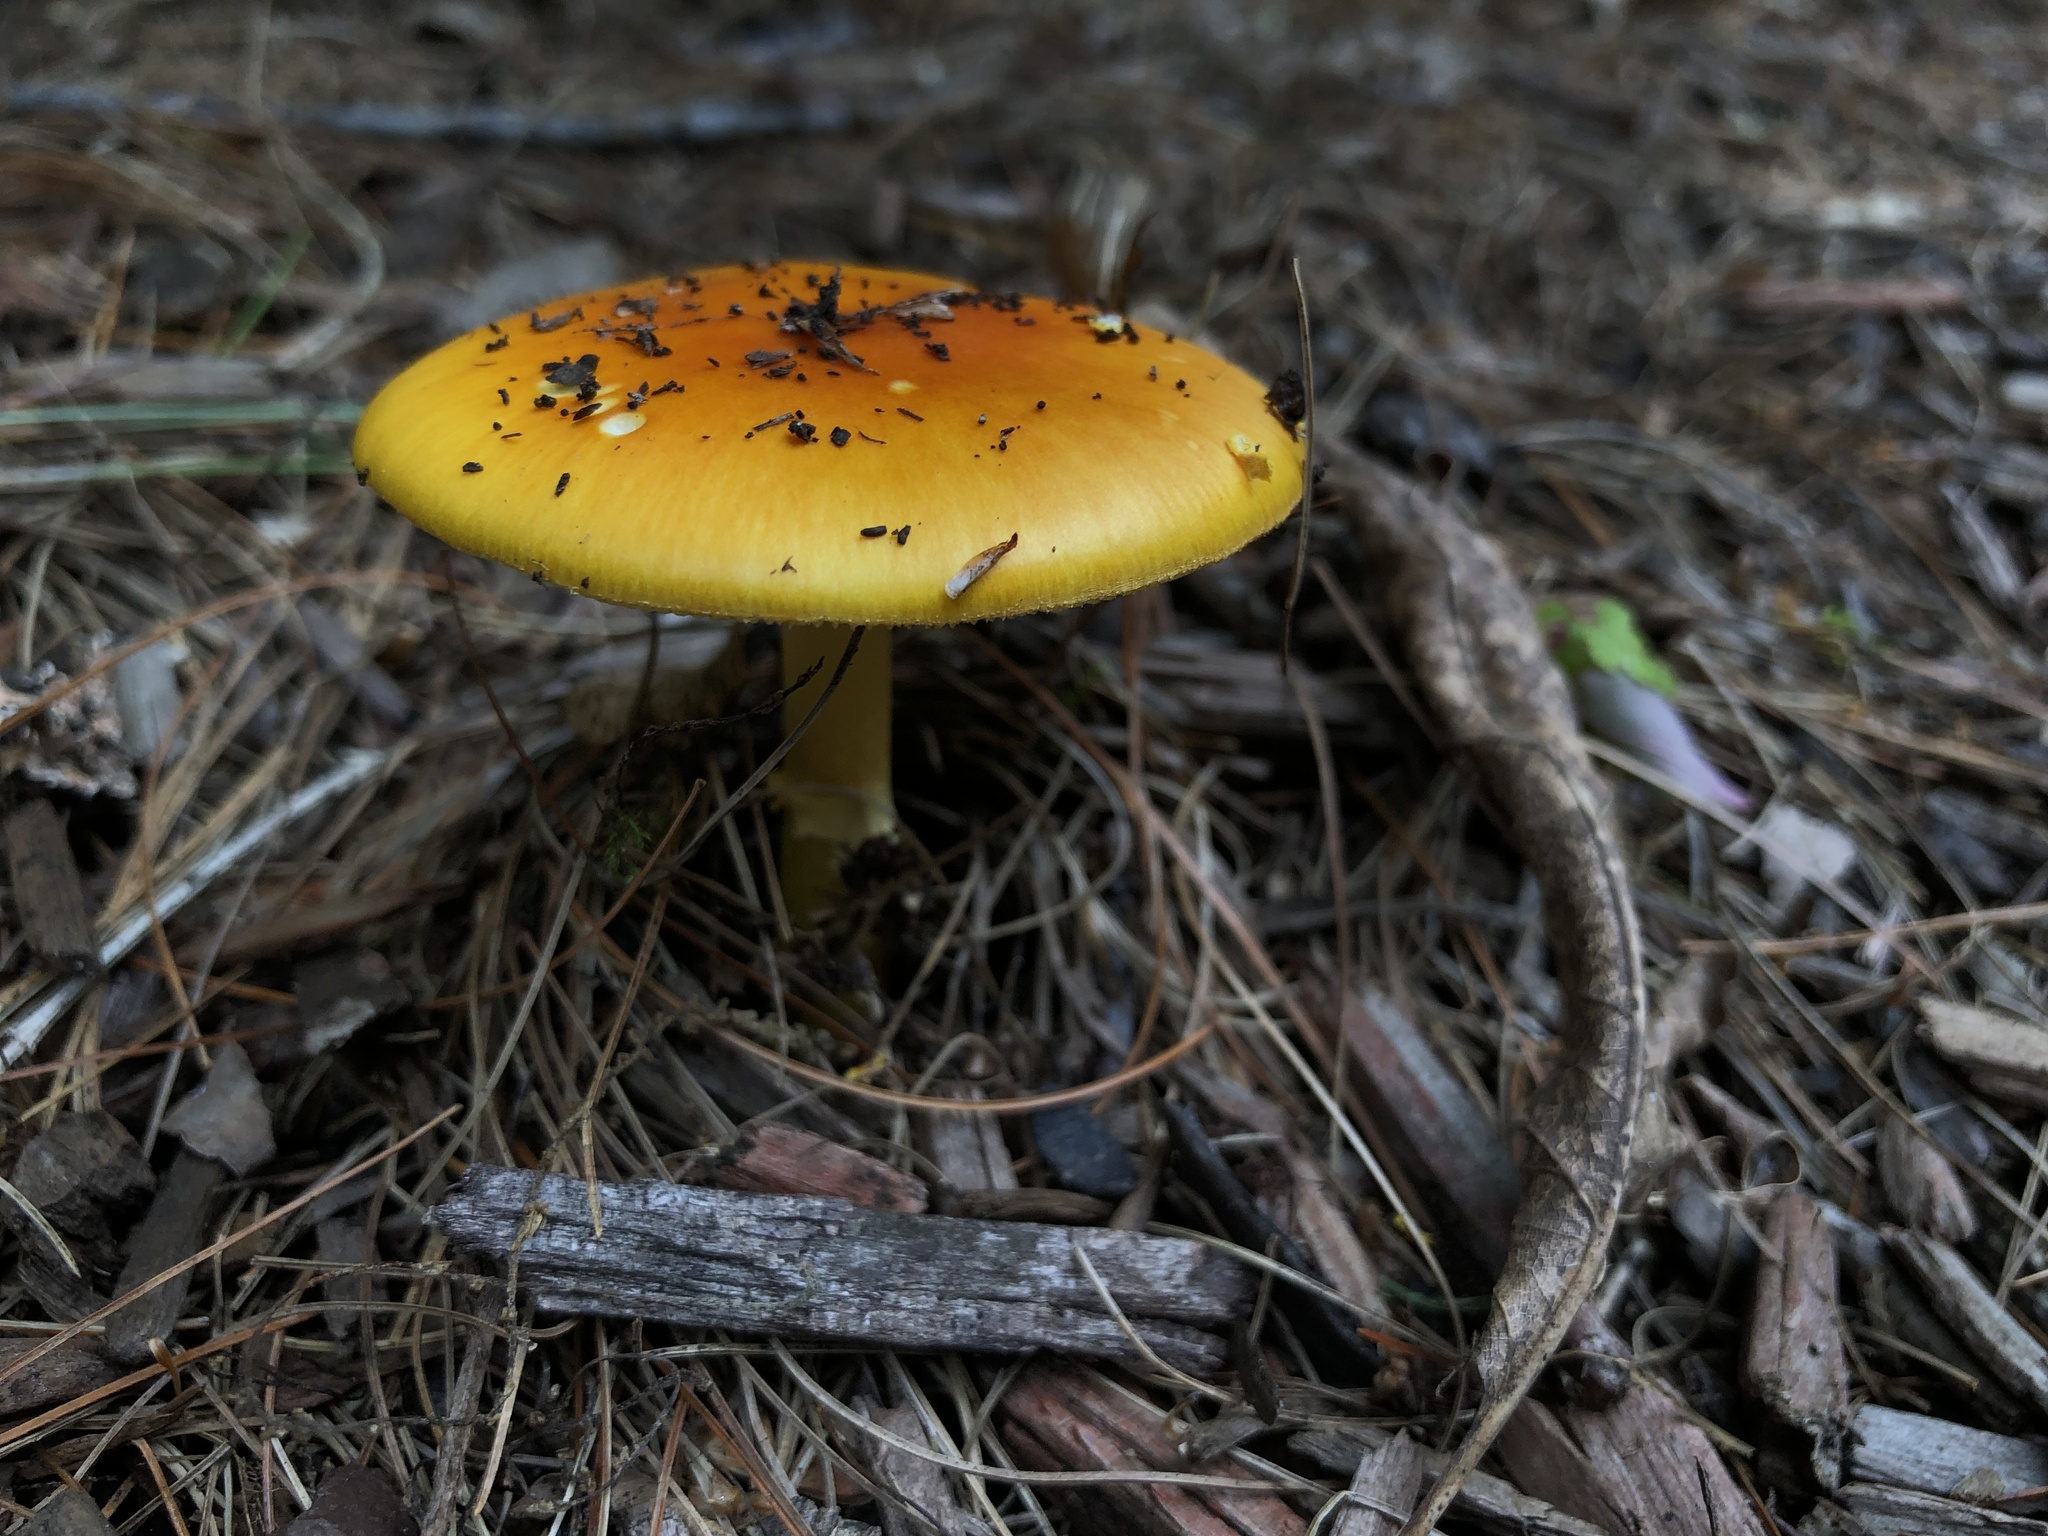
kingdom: Fungi
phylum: Basidiomycota
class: Agaricomycetes
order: Agaricales
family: Amanitaceae
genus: Amanita
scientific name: Amanita flavoconia
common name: Yellow patches
